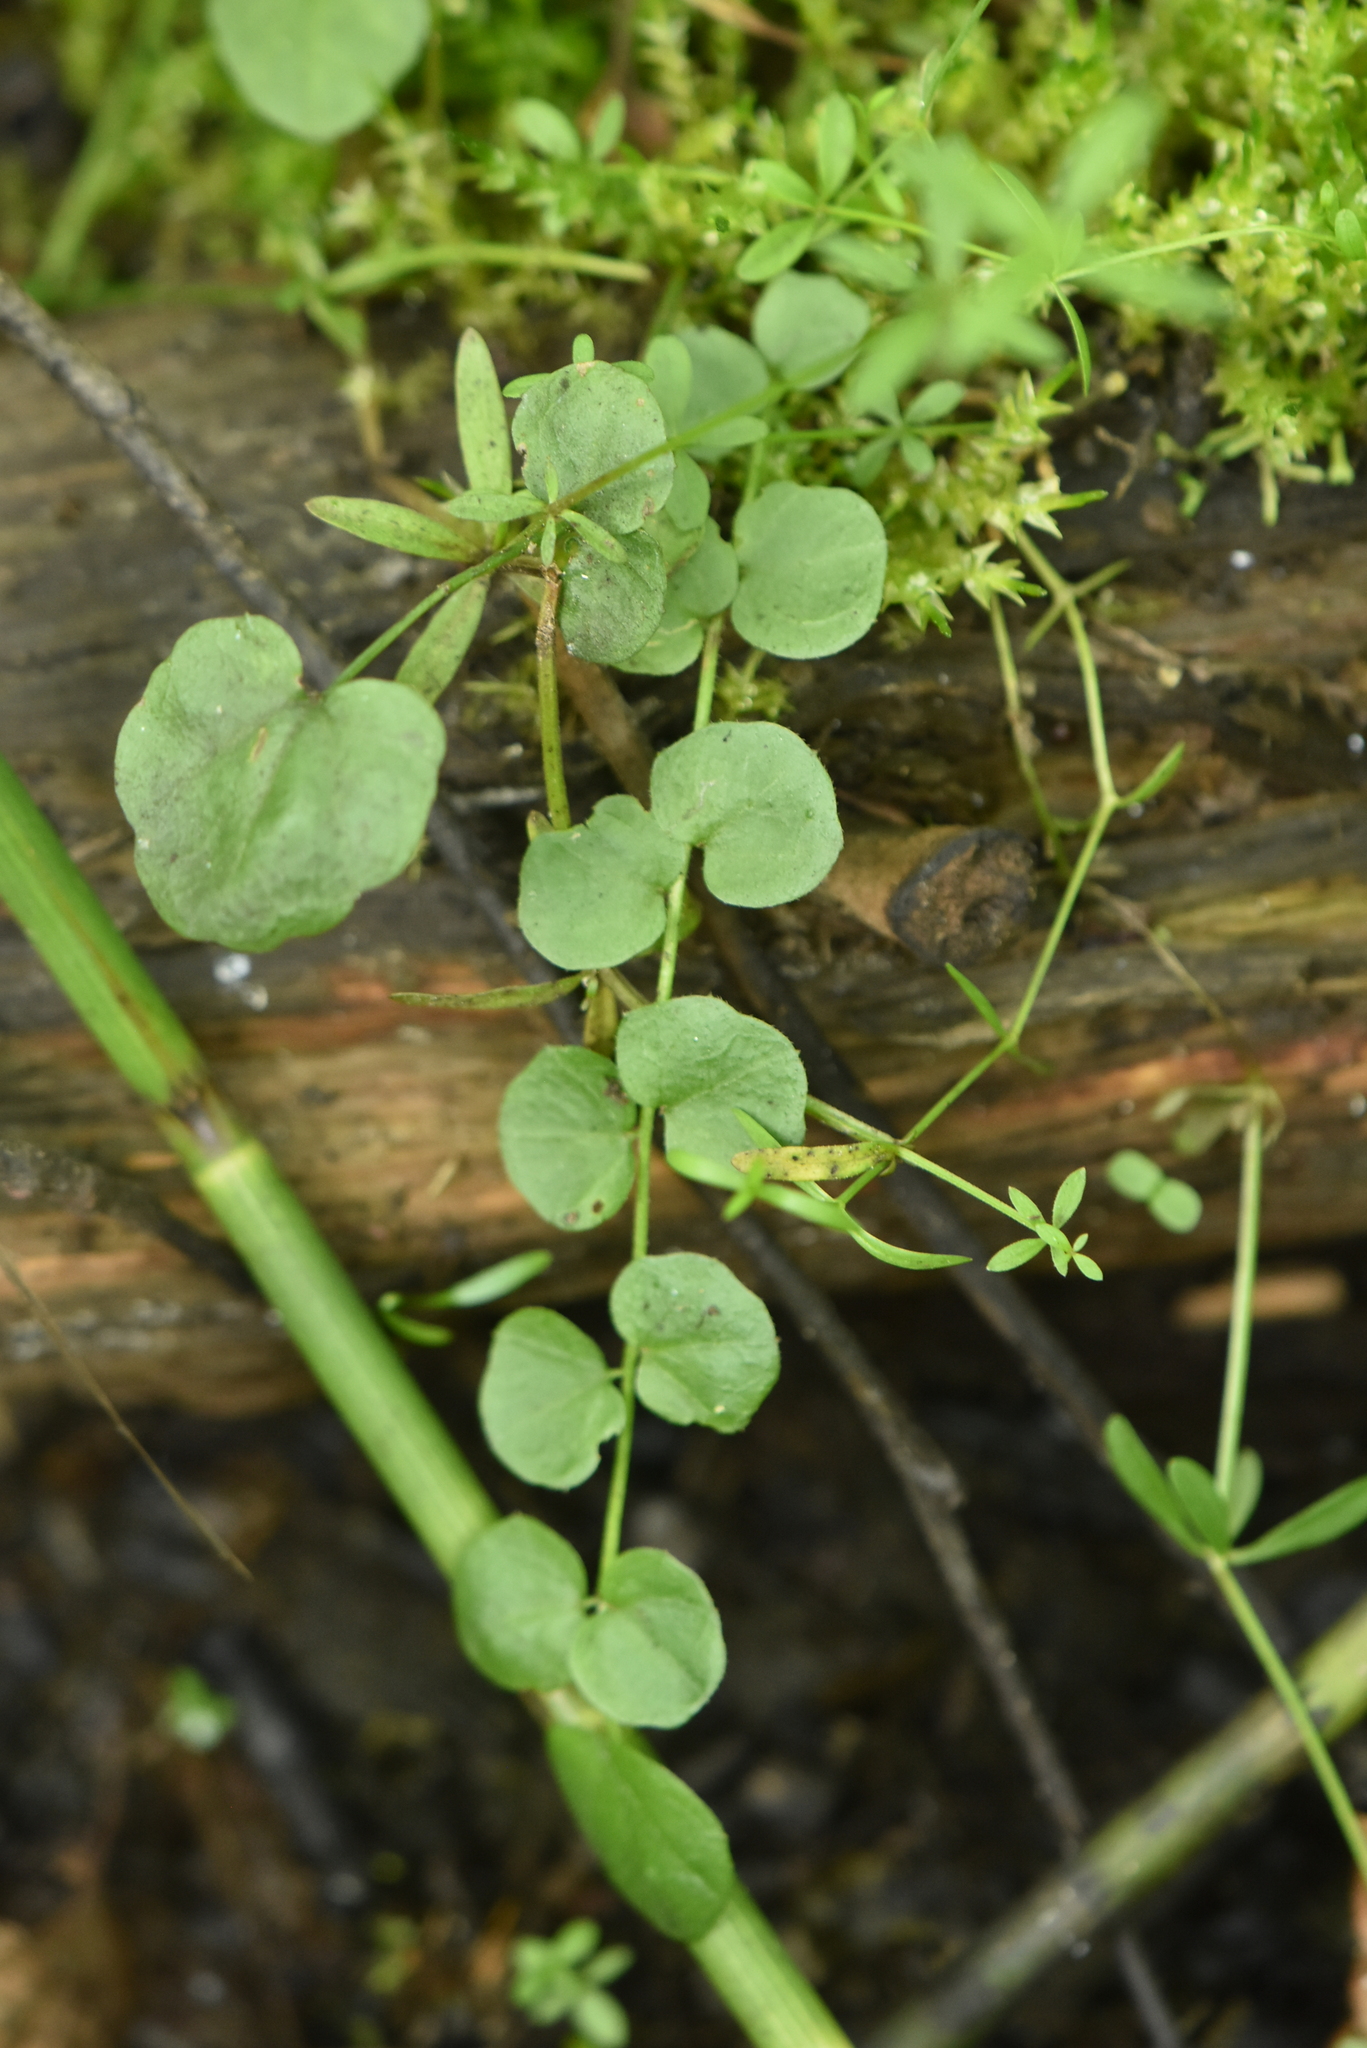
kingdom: Plantae
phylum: Tracheophyta
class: Magnoliopsida
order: Brassicales
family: Brassicaceae
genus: Cardamine
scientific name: Cardamine dentata
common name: Toothed bittercress
